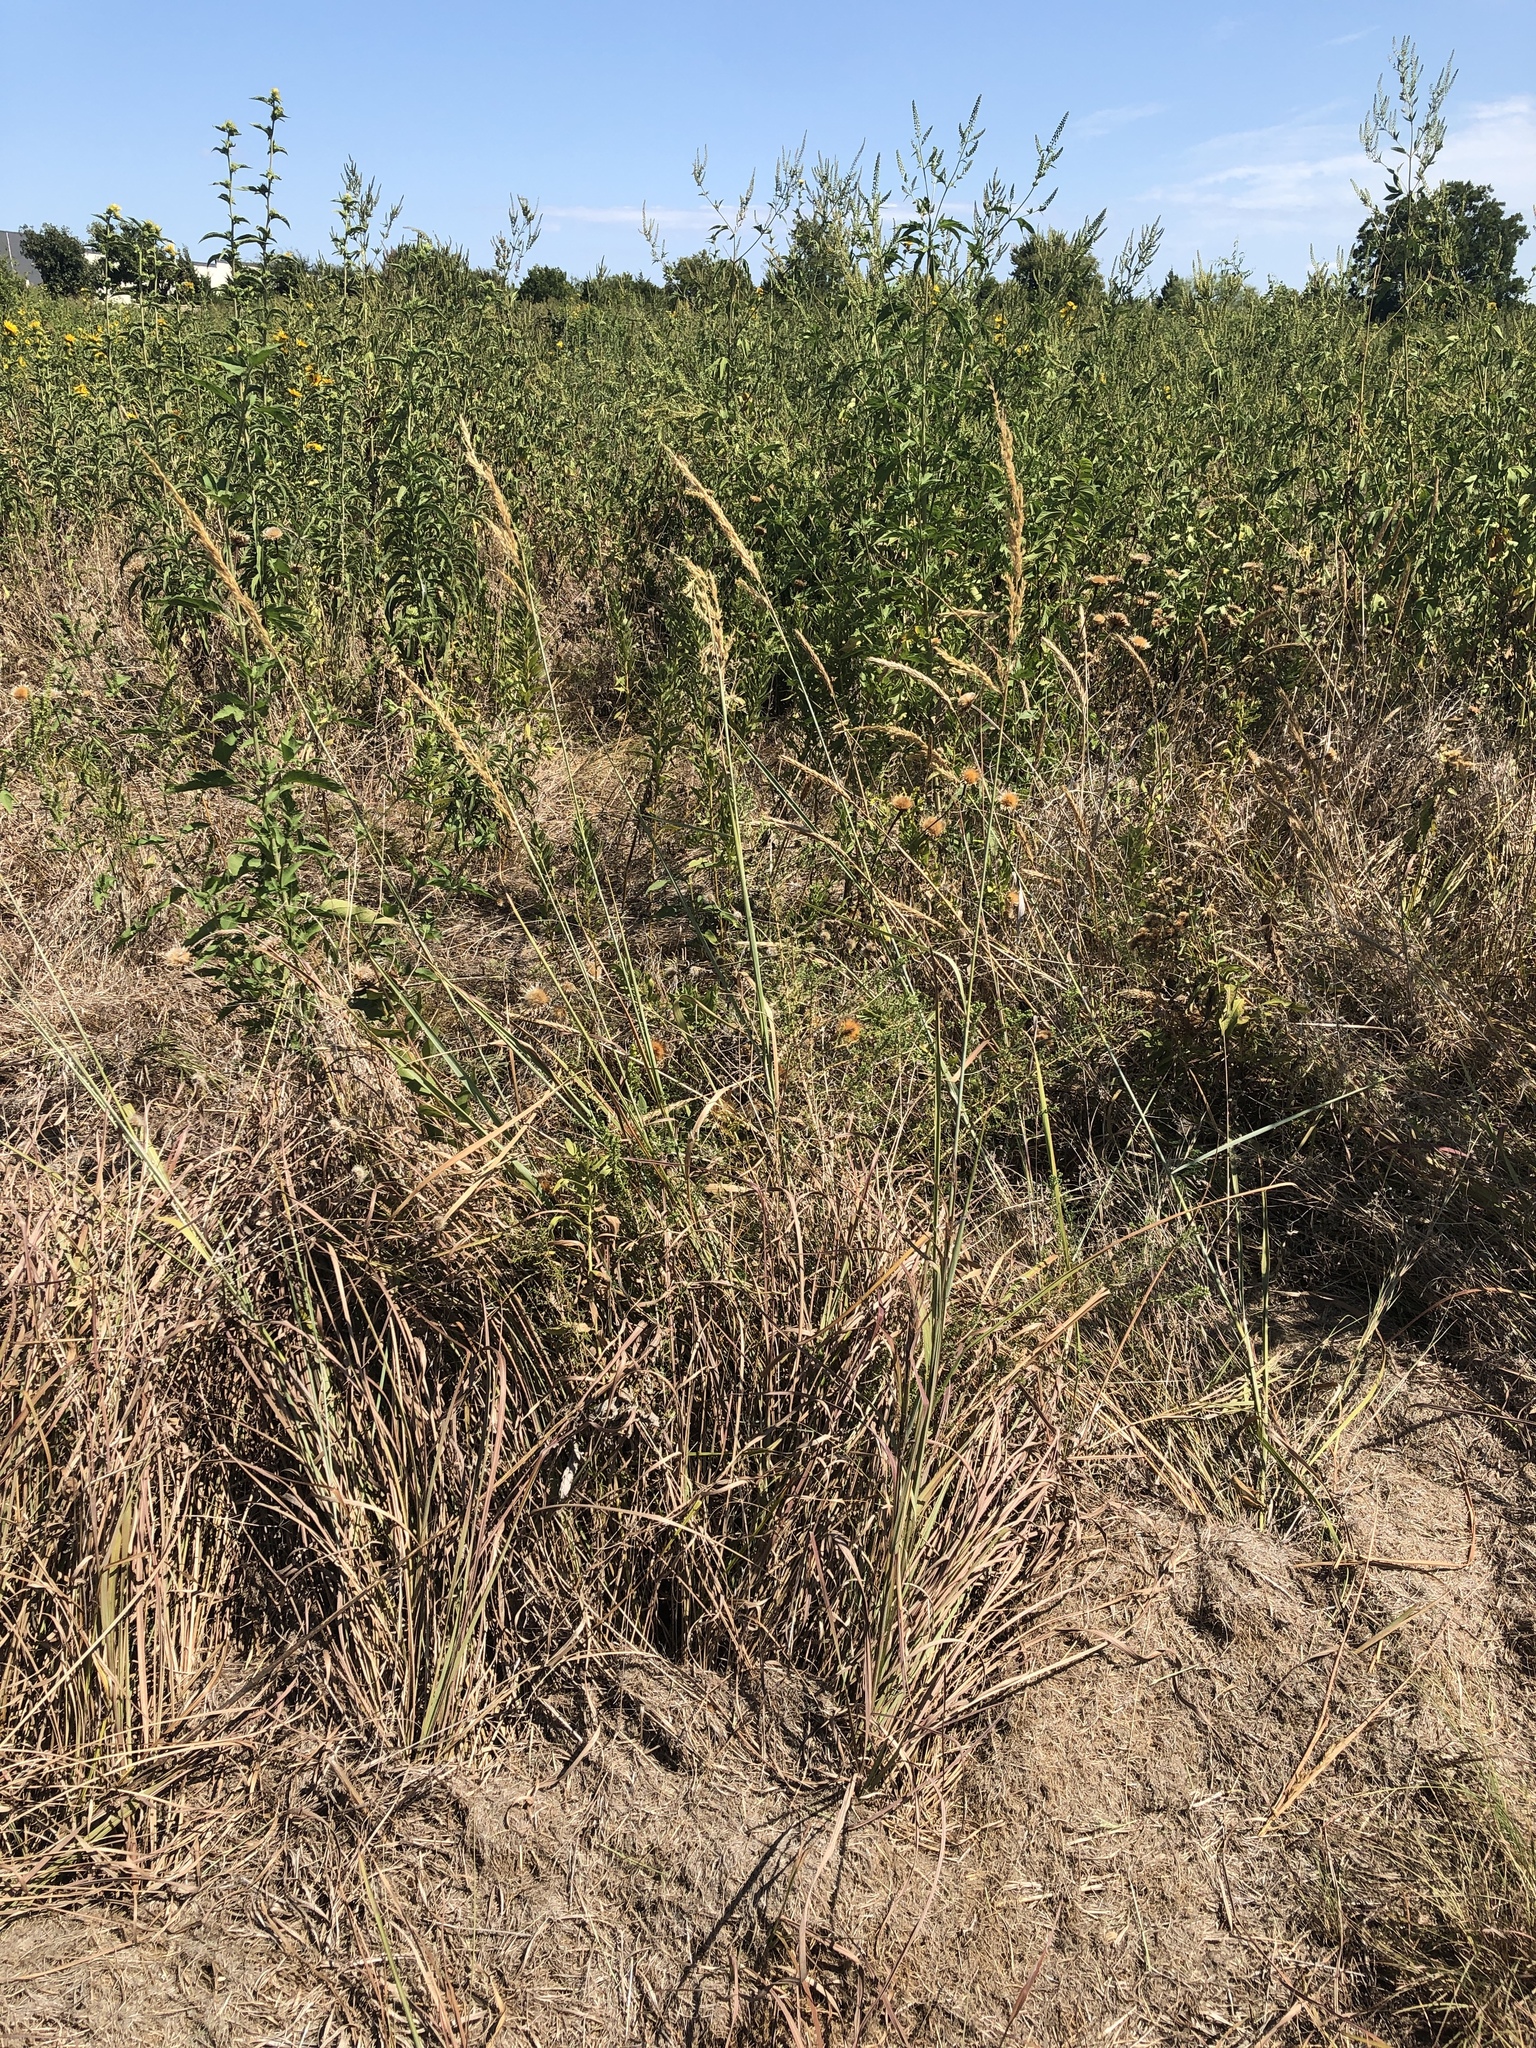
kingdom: Plantae
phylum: Tracheophyta
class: Liliopsida
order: Poales
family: Poaceae
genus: Sorghastrum
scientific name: Sorghastrum nutans
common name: Indian grass
